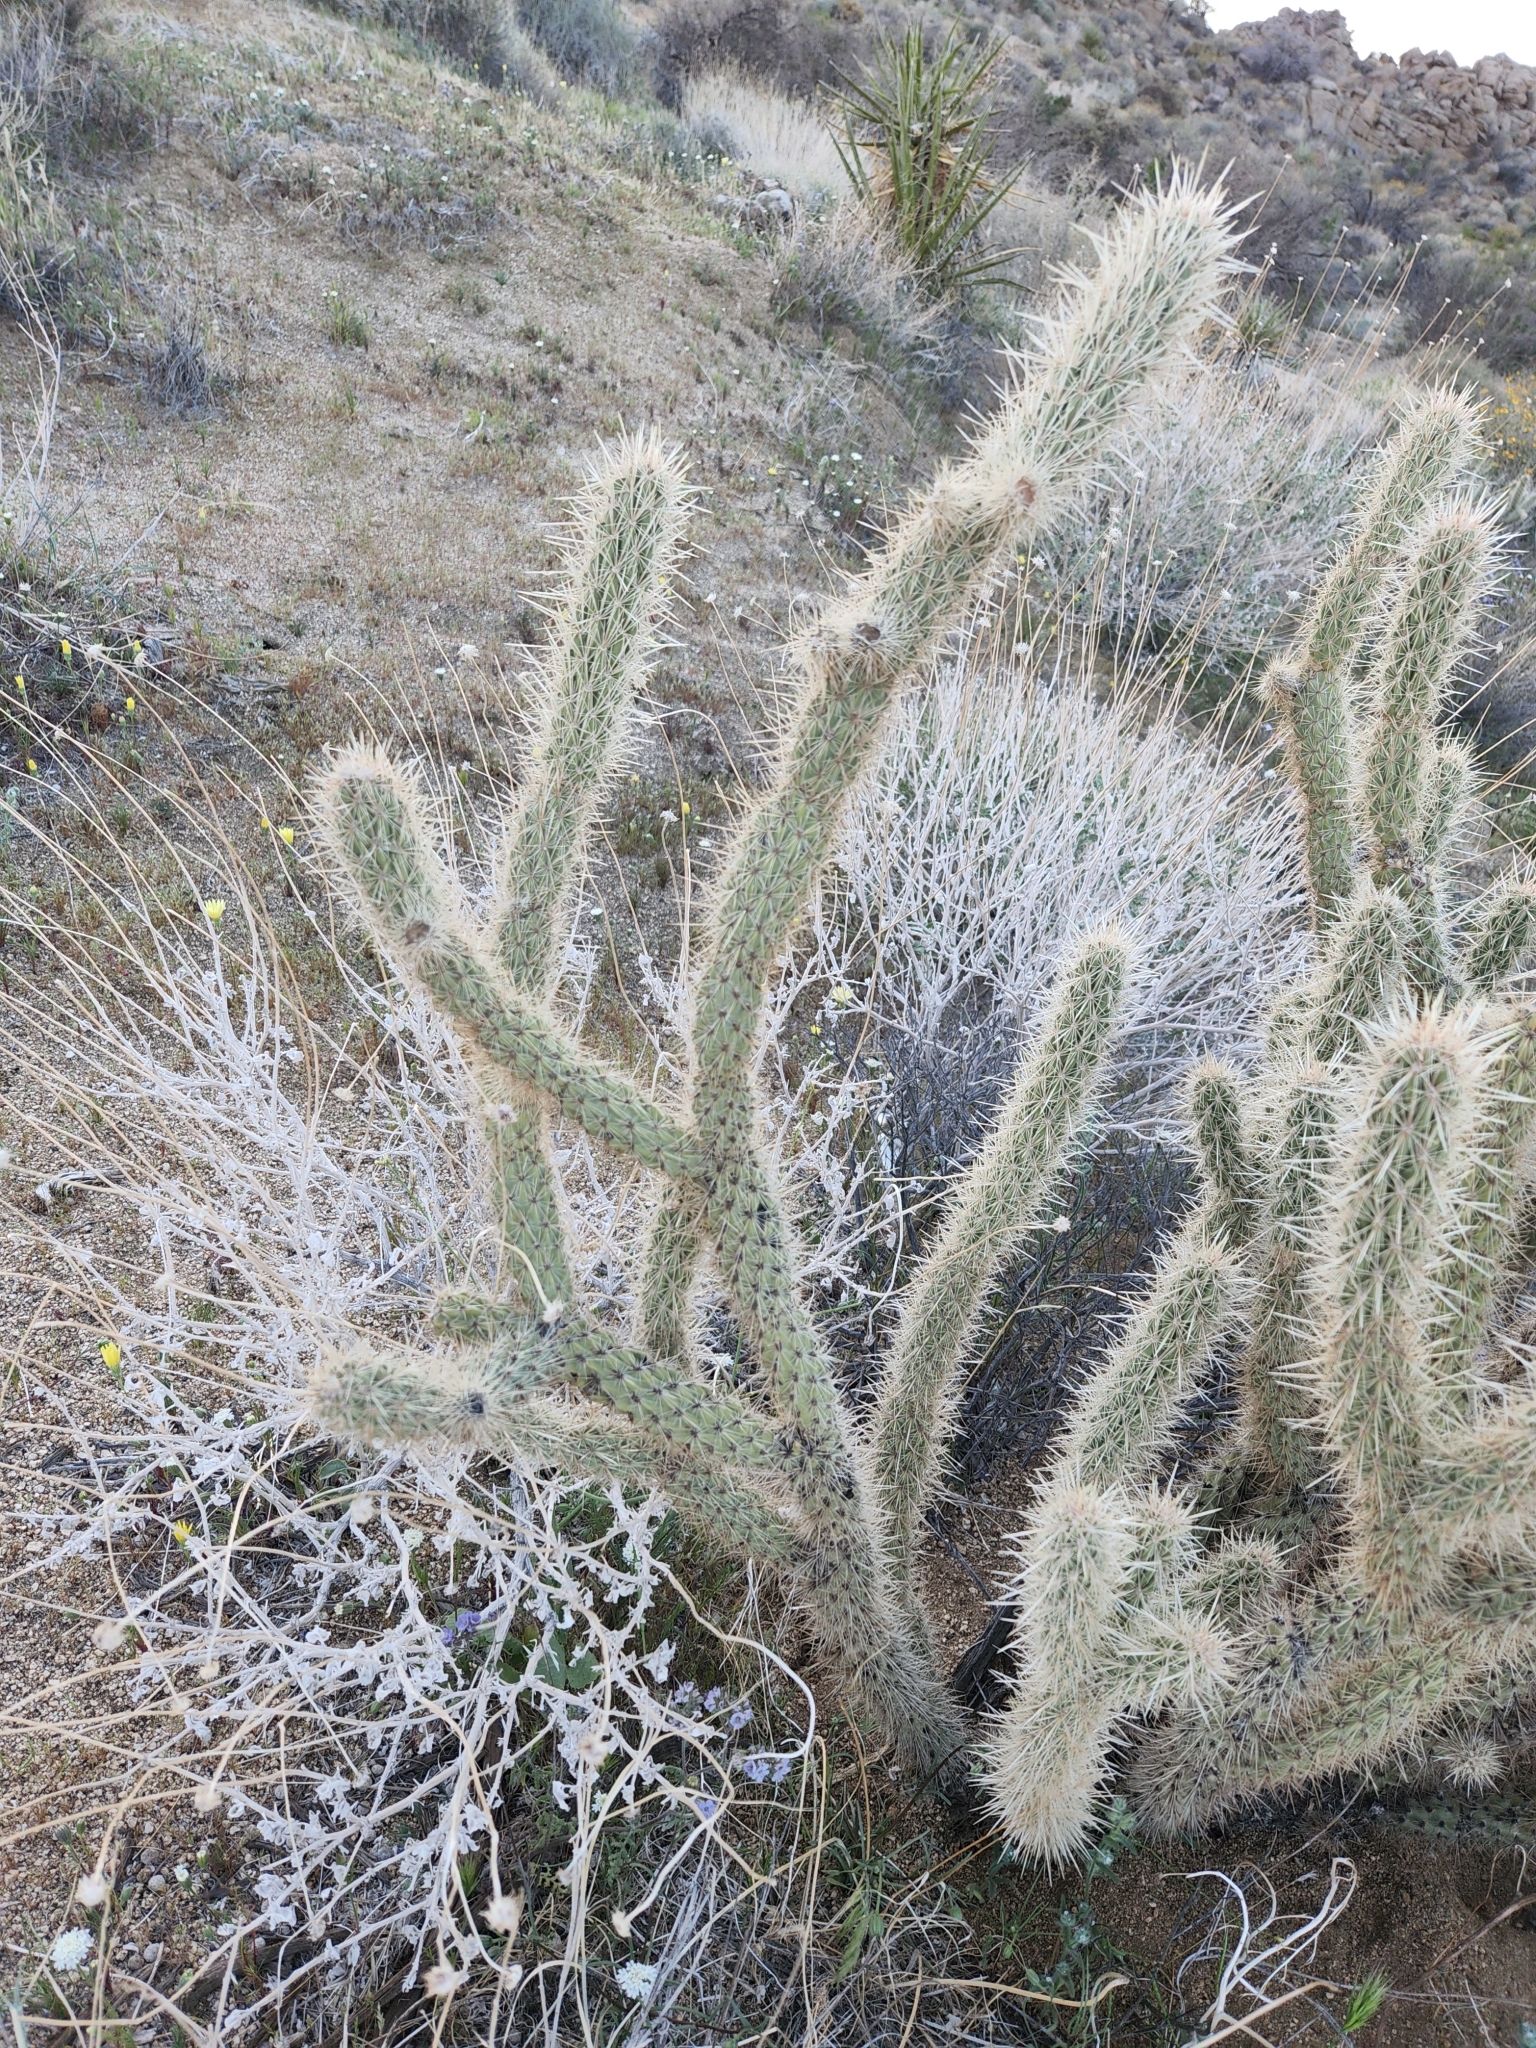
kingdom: Plantae
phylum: Tracheophyta
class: Magnoliopsida
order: Caryophyllales
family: Cactaceae
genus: Cylindropuntia
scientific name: Cylindropuntia ganderi
